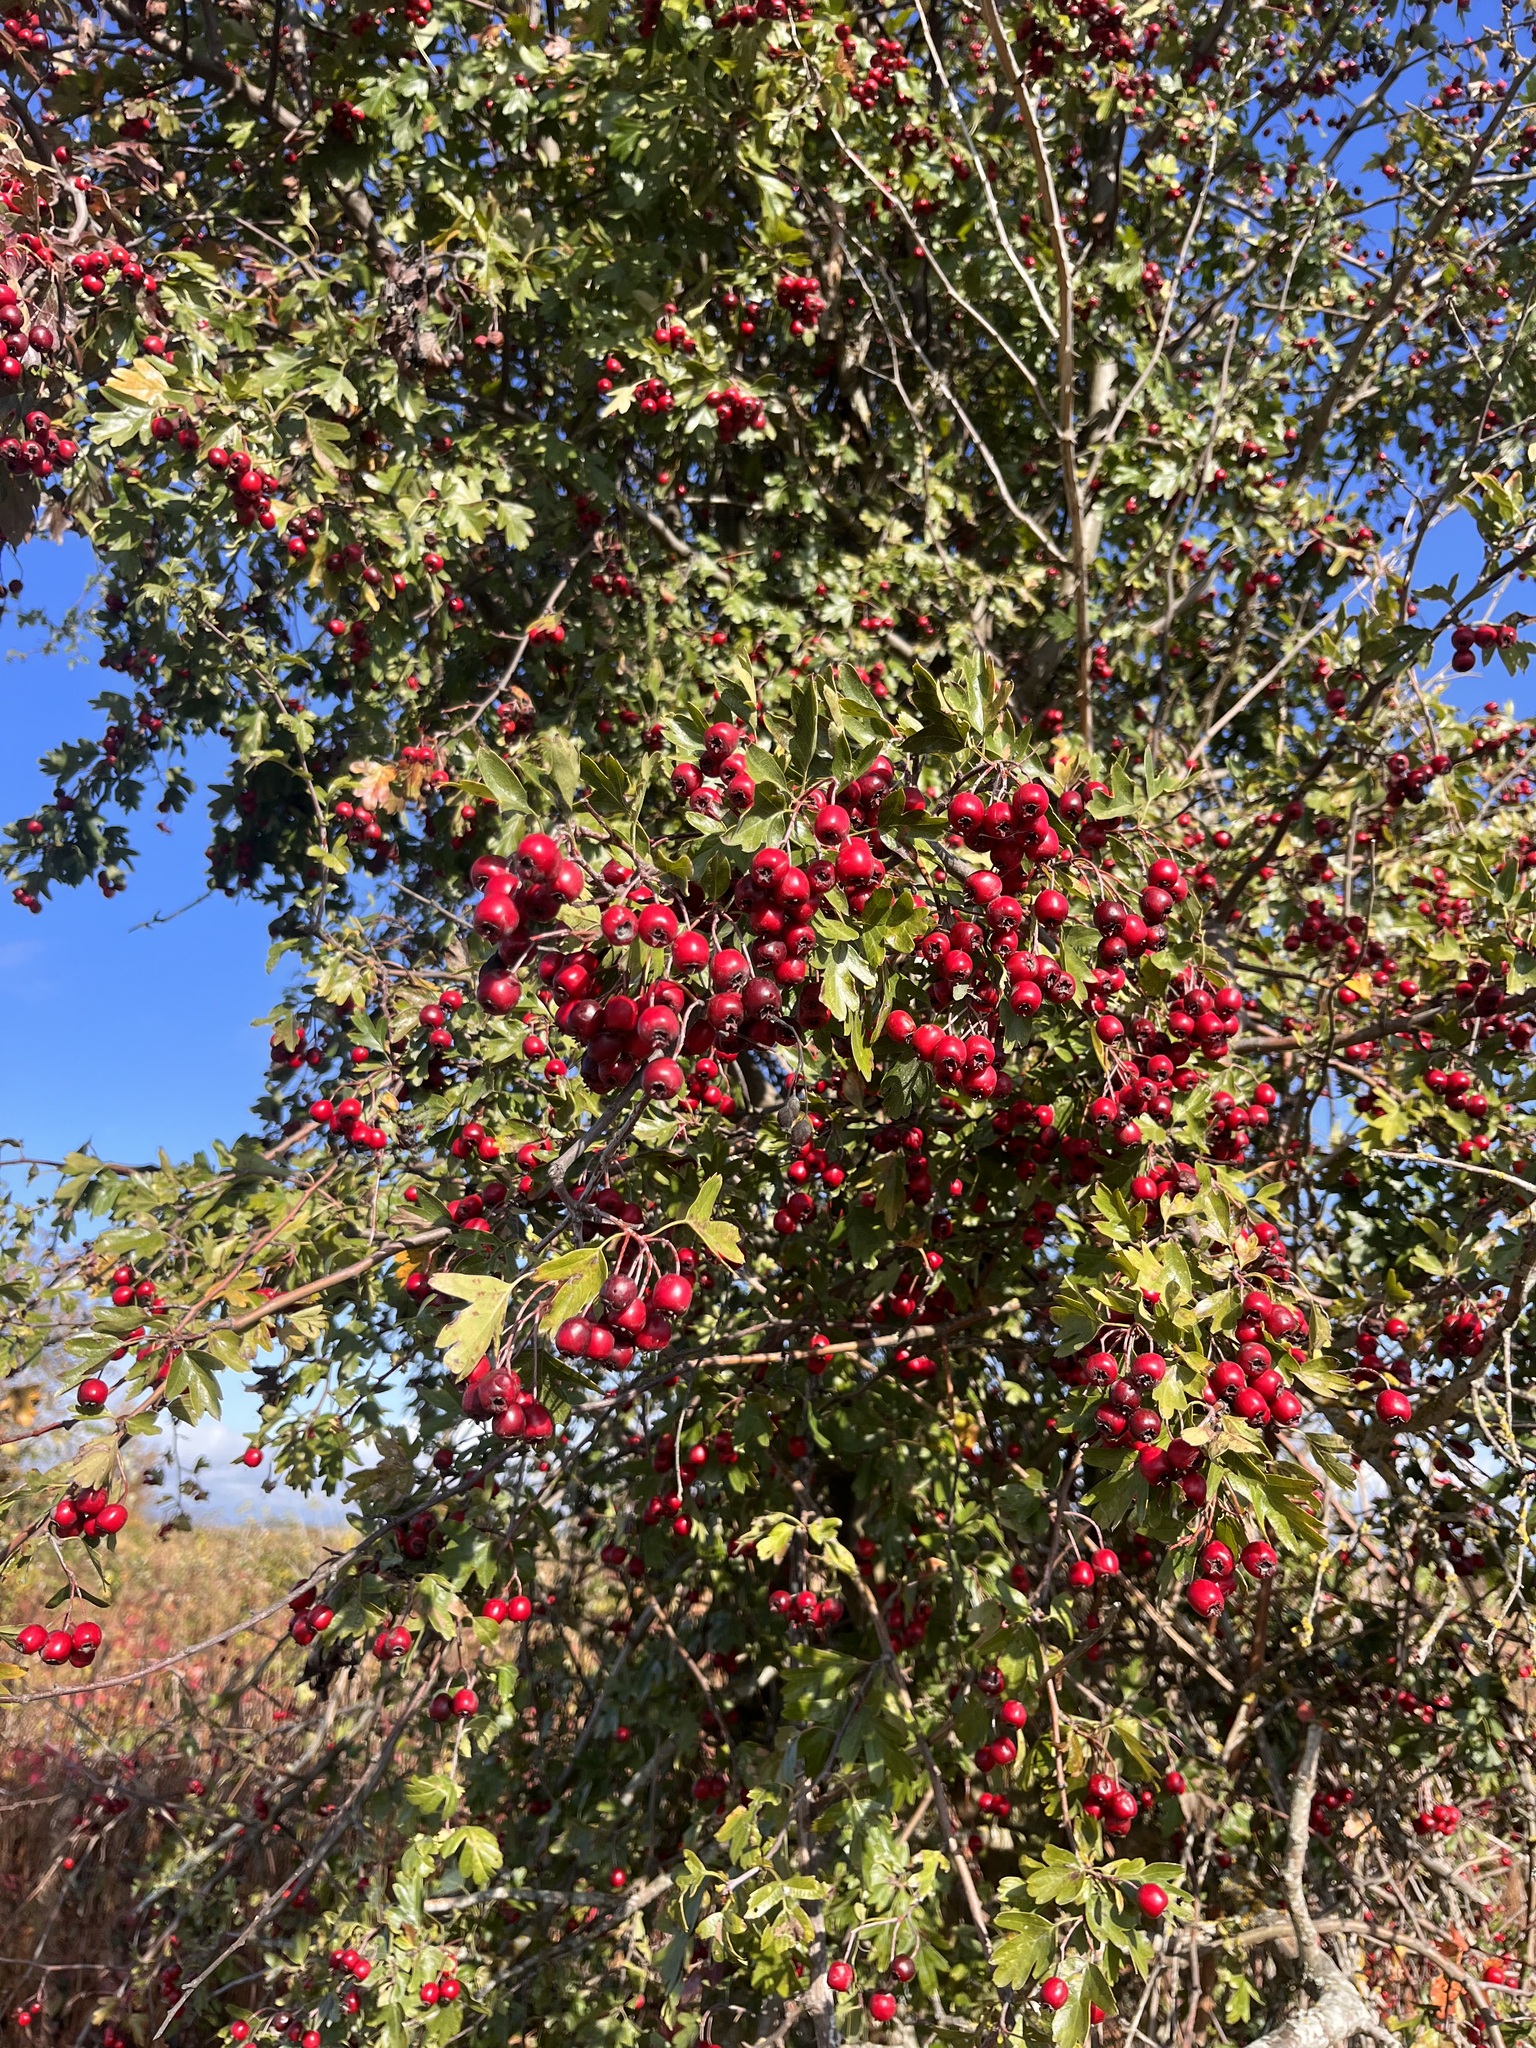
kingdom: Plantae
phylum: Tracheophyta
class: Magnoliopsida
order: Rosales
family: Rosaceae
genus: Crataegus
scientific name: Crataegus monogyna
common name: Hawthorn
